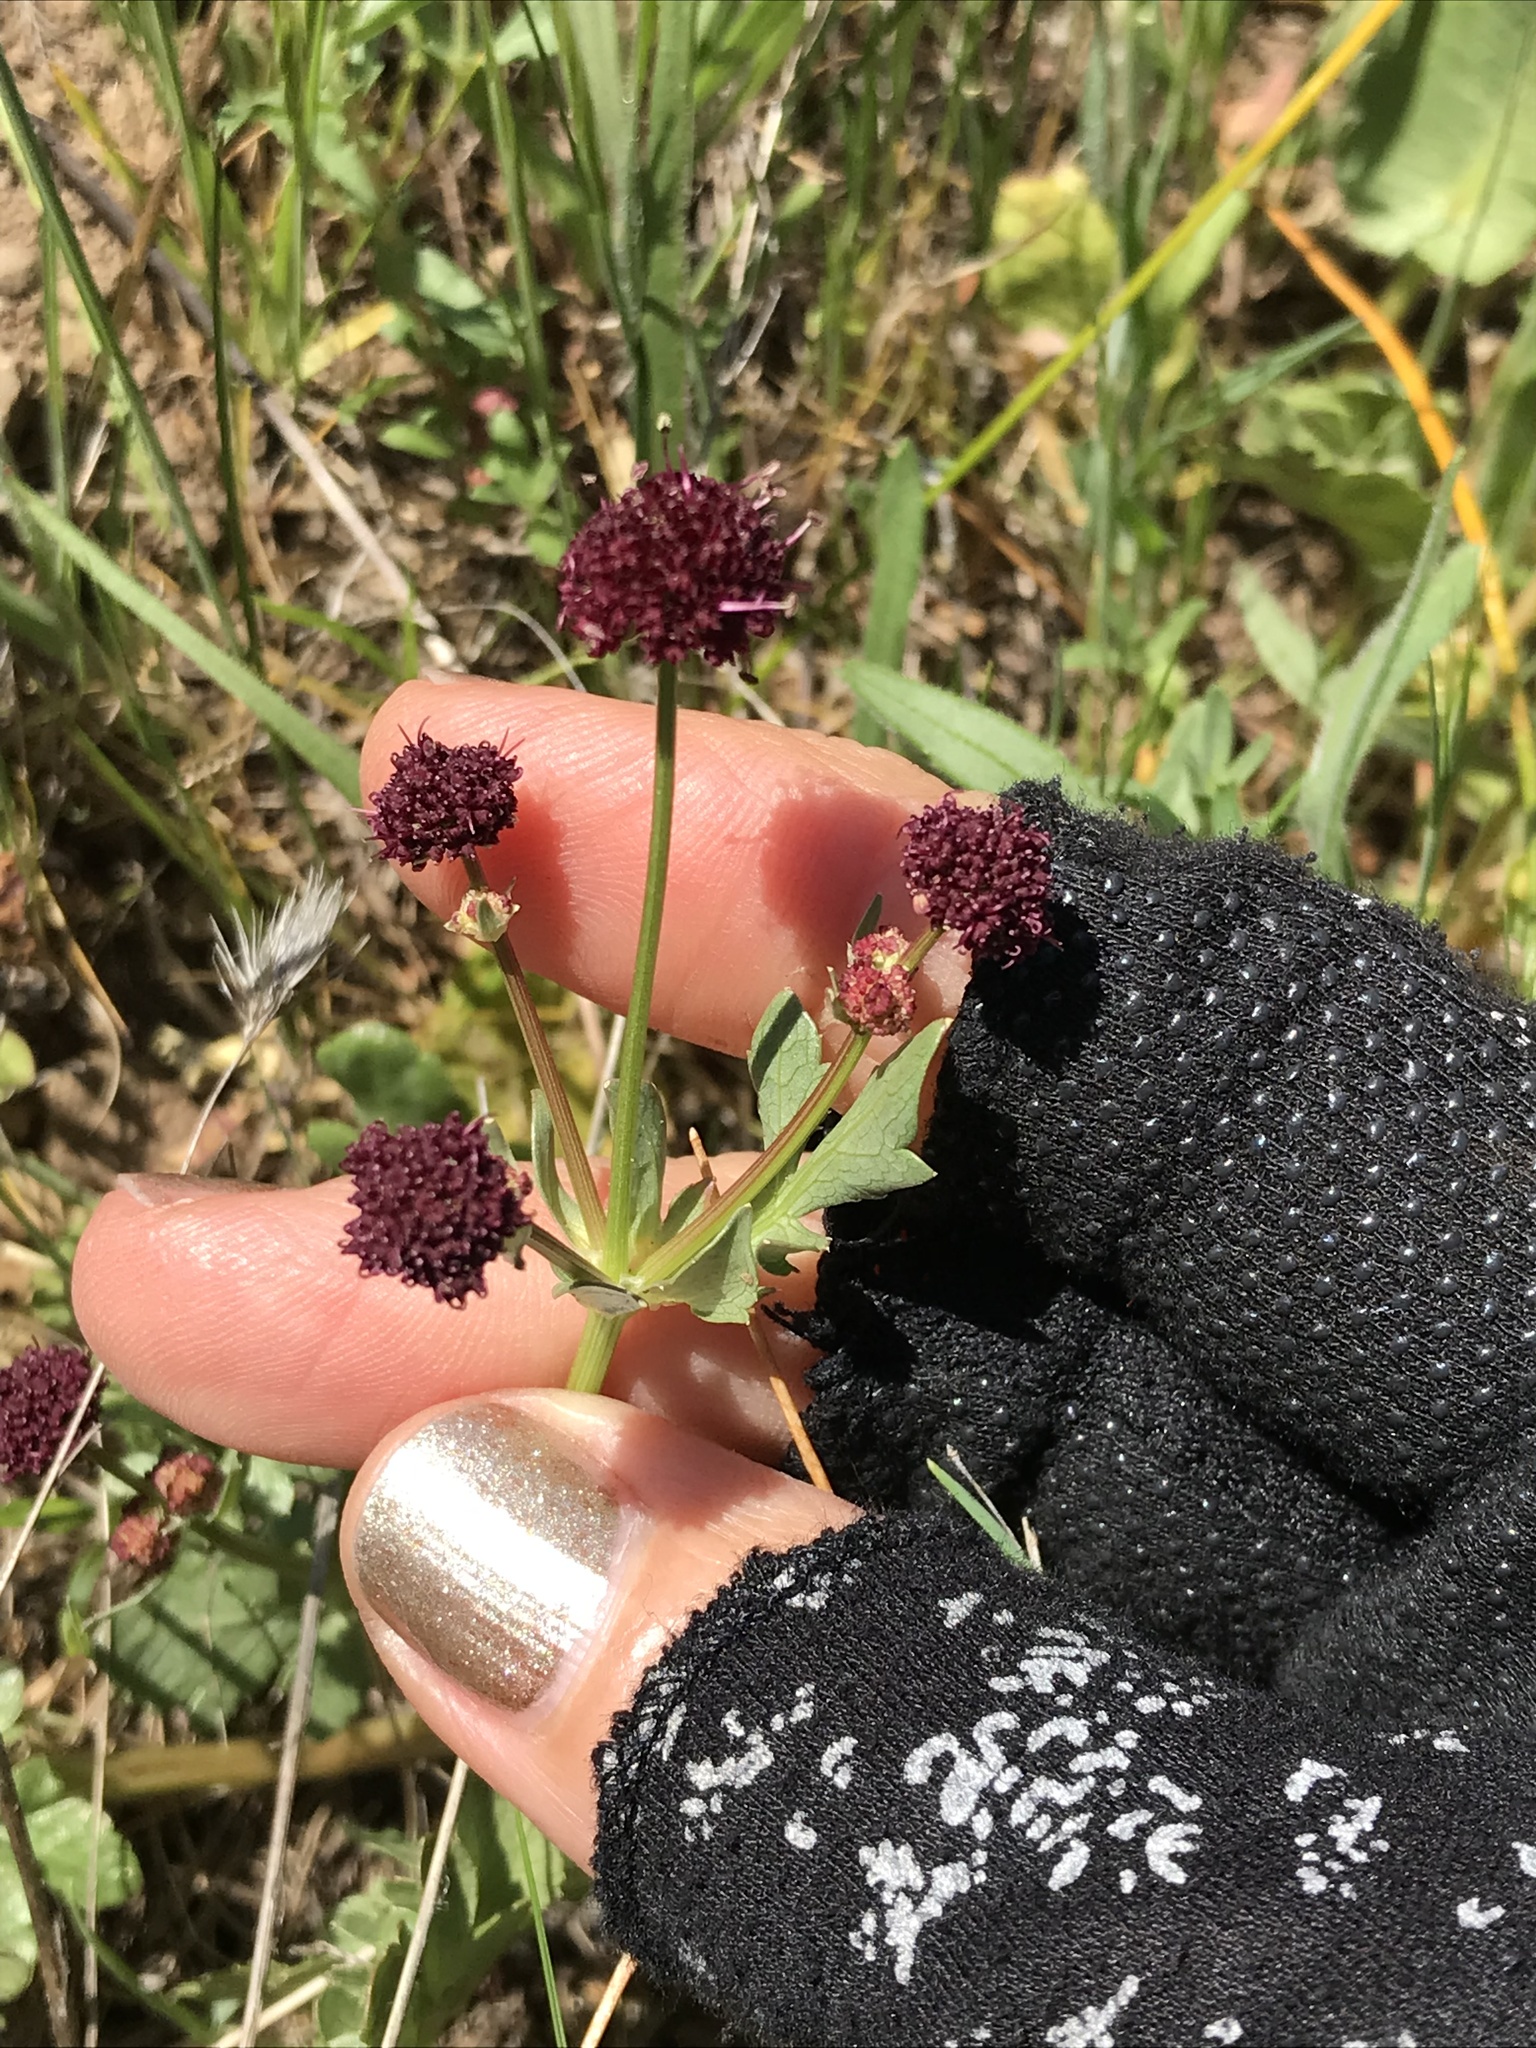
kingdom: Plantae
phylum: Tracheophyta
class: Magnoliopsida
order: Apiales
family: Apiaceae
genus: Sanicula
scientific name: Sanicula bipinnatifida
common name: Shoe-buttons
